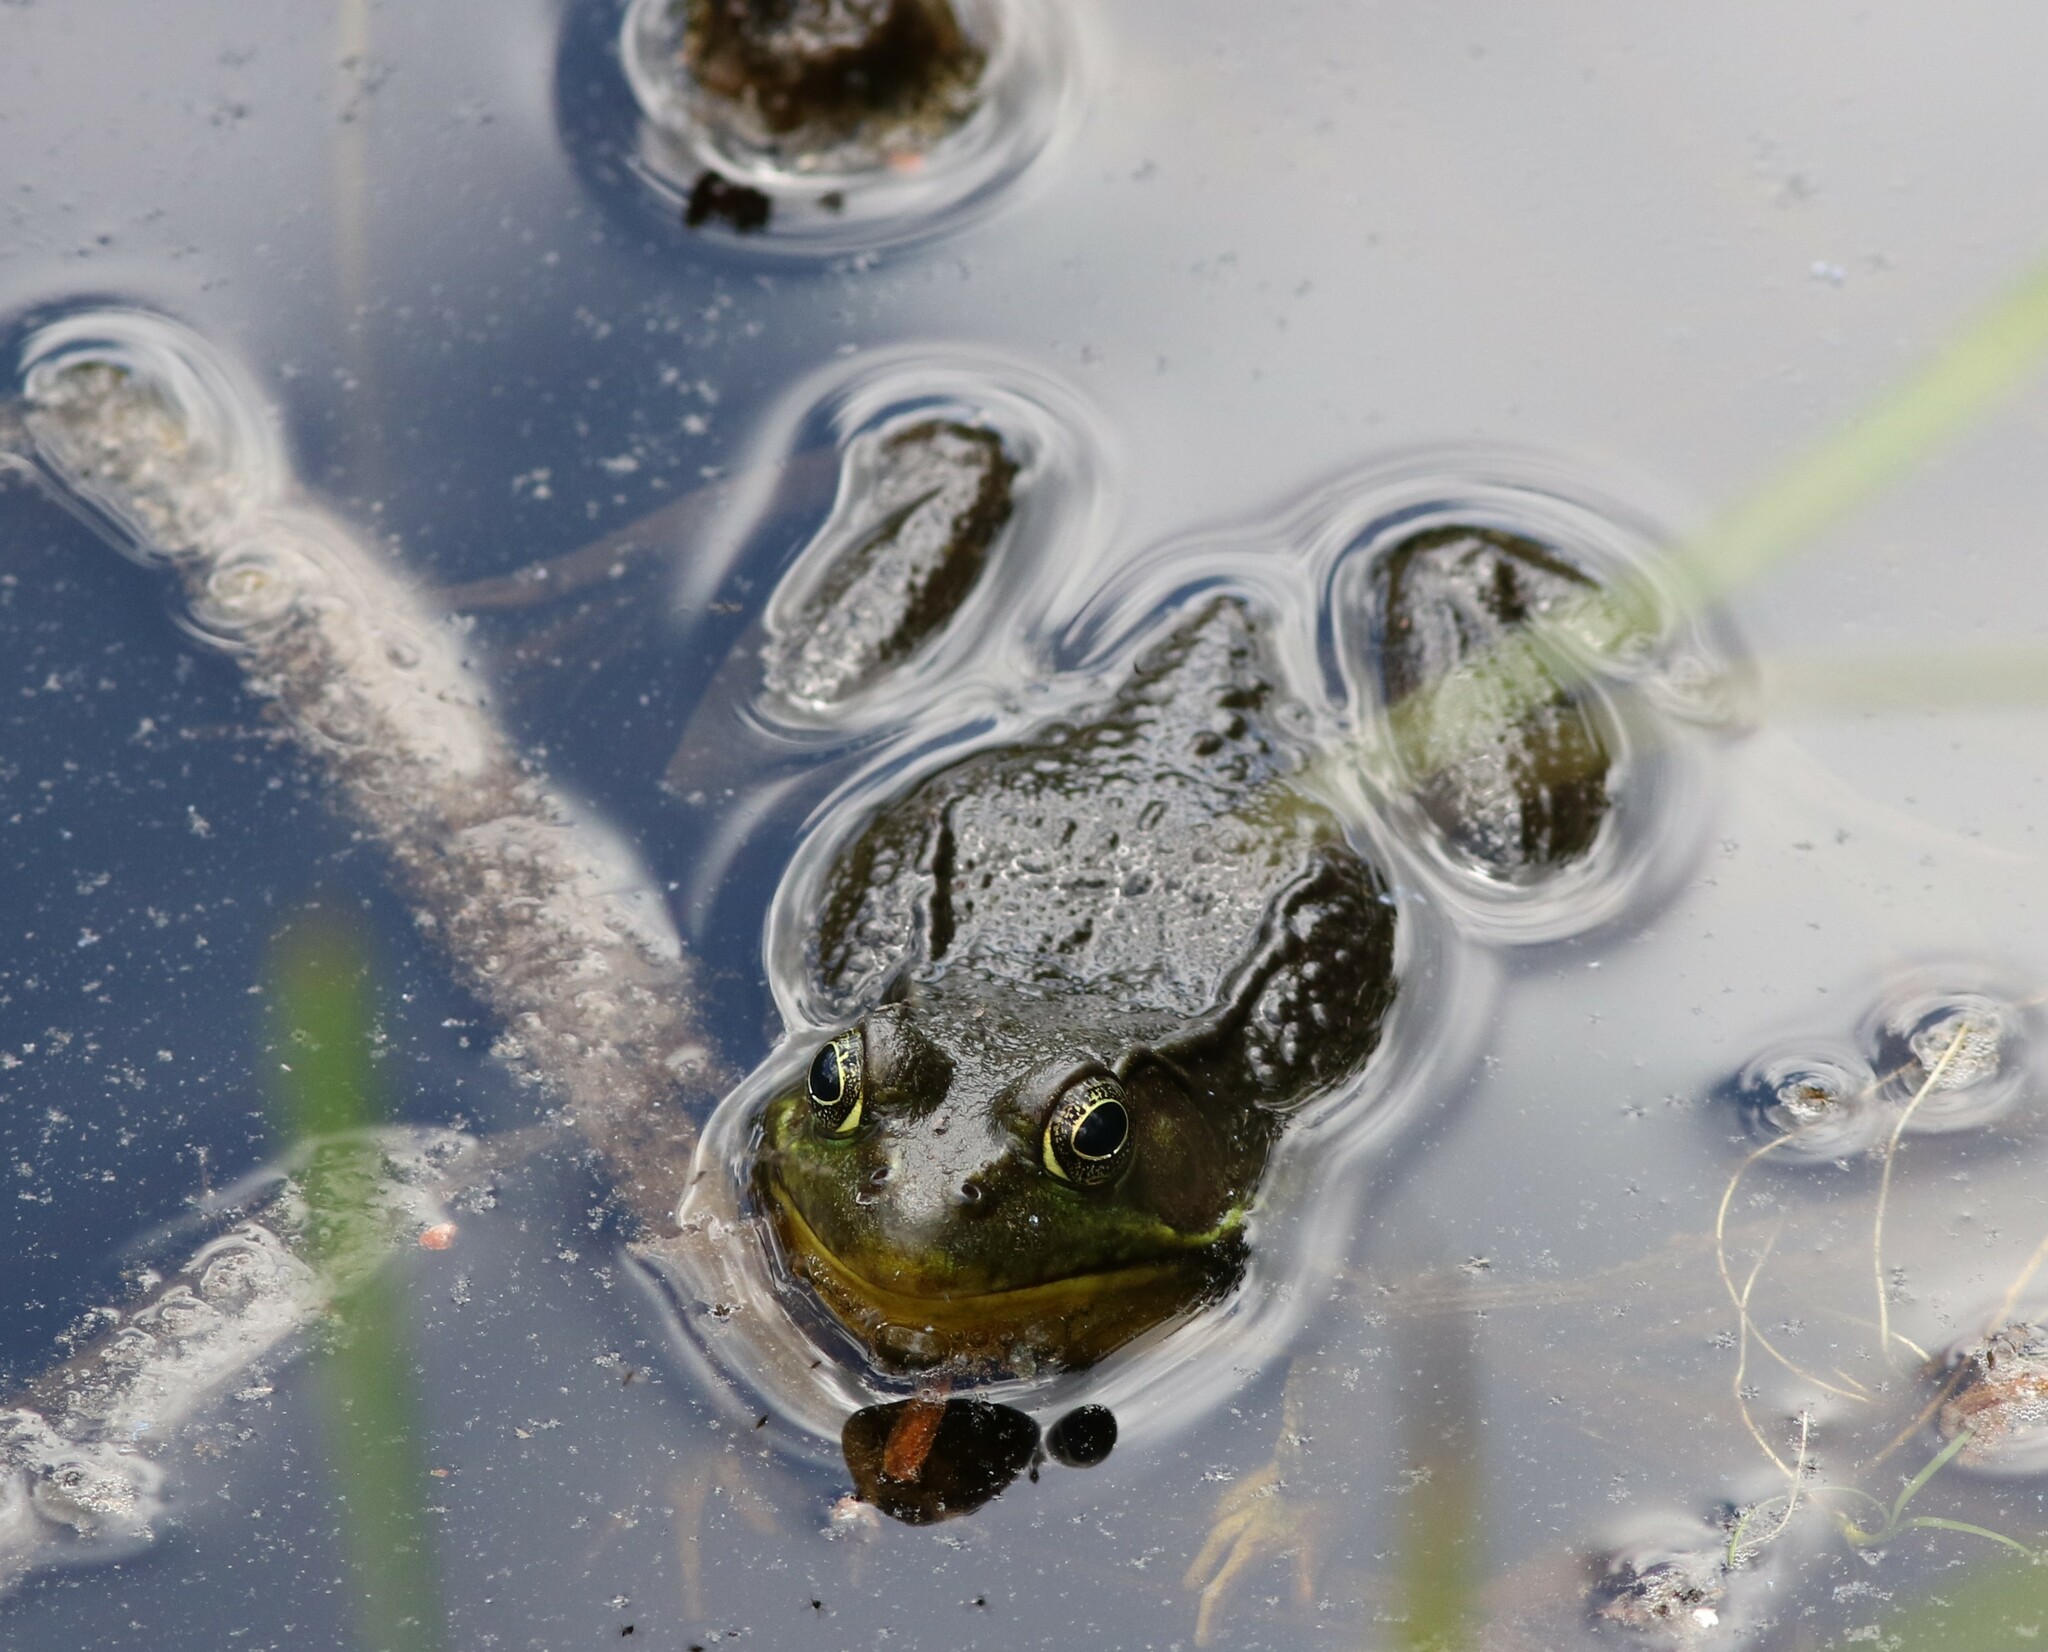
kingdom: Animalia
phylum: Chordata
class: Amphibia
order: Anura
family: Ranidae
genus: Lithobates
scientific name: Lithobates clamitans
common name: Green frog
